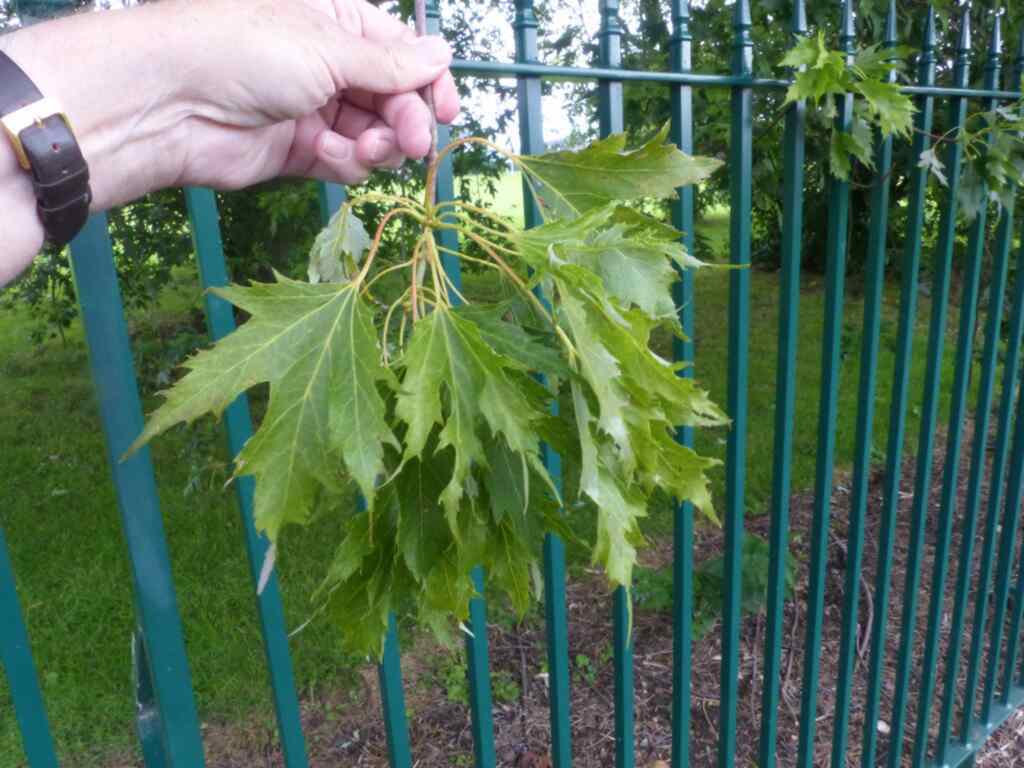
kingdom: Plantae
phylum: Tracheophyta
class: Magnoliopsida
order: Sapindales
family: Sapindaceae
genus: Acer
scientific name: Acer saccharinum
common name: Silver maple
